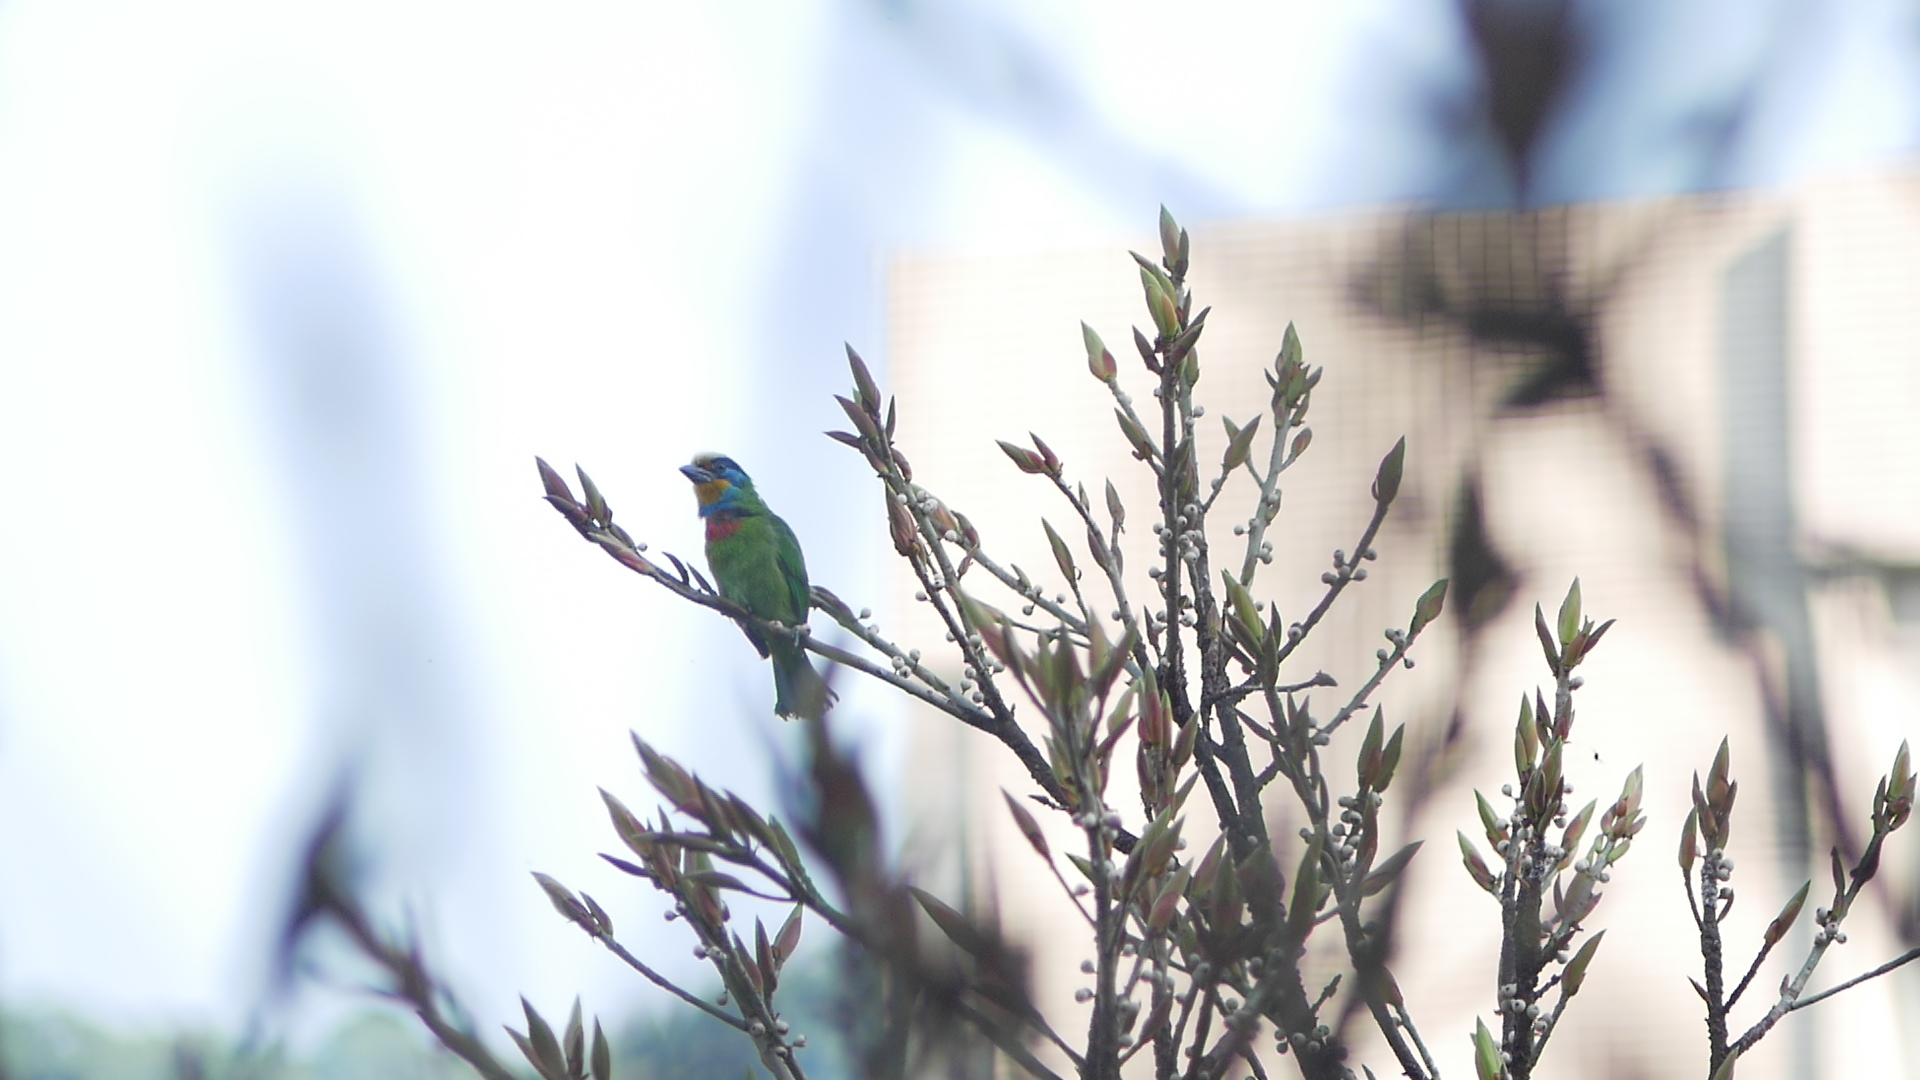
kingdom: Animalia
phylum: Chordata
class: Aves
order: Piciformes
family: Megalaimidae
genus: Psilopogon
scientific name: Psilopogon nuchalis
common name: Taiwan barbet
